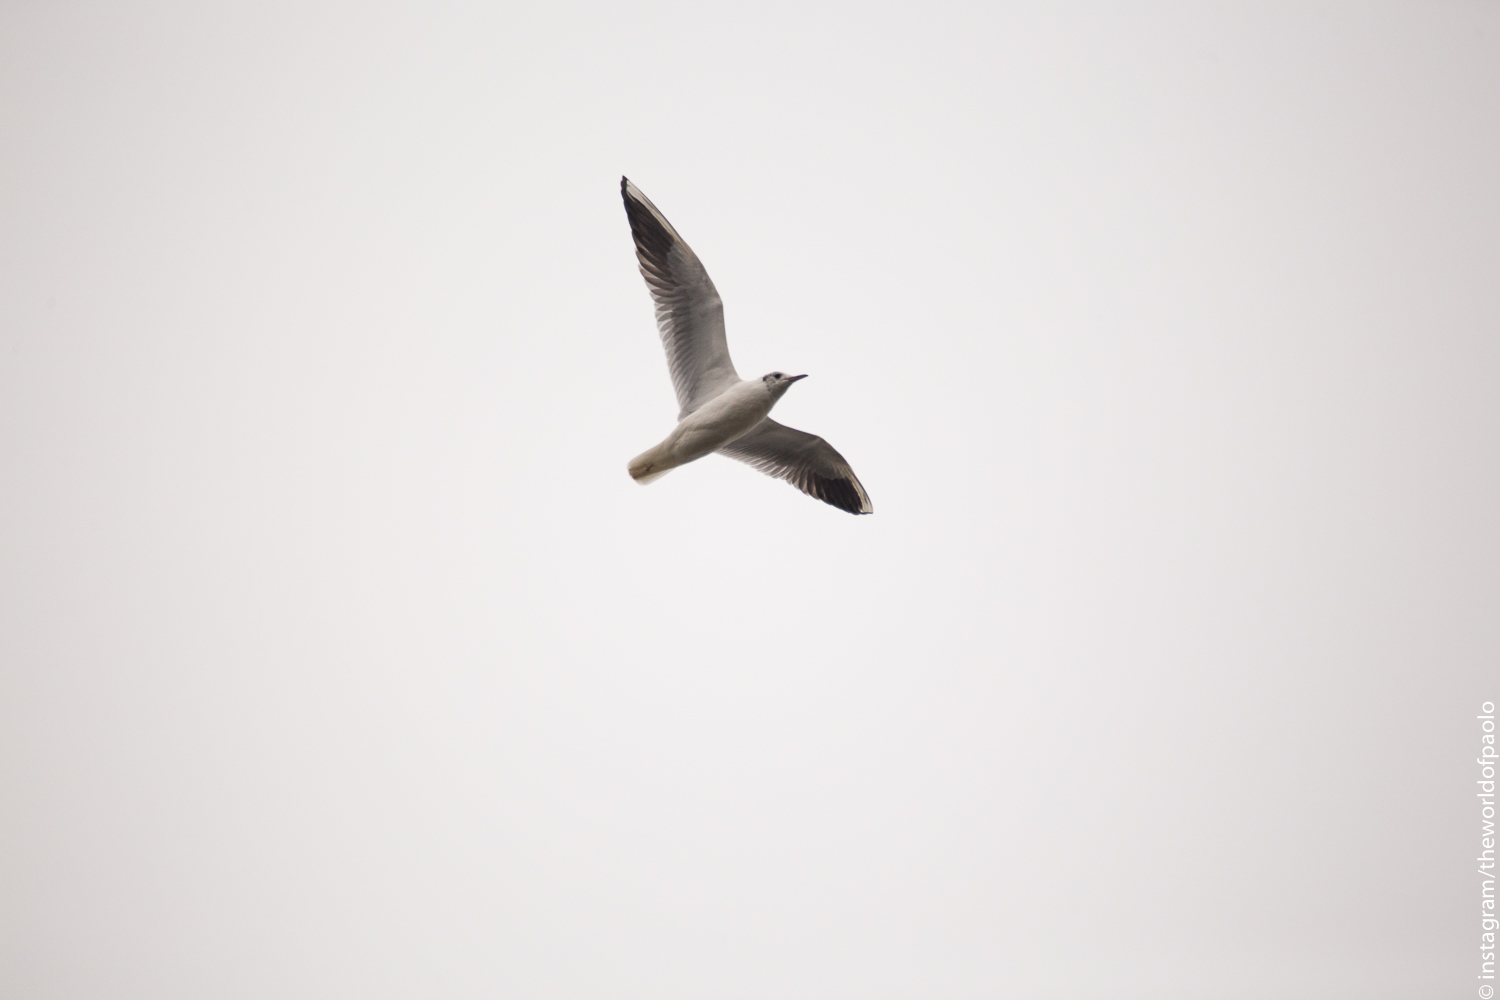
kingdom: Animalia
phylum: Chordata
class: Aves
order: Charadriiformes
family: Laridae
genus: Chroicocephalus
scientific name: Chroicocephalus ridibundus
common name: Black-headed gull
